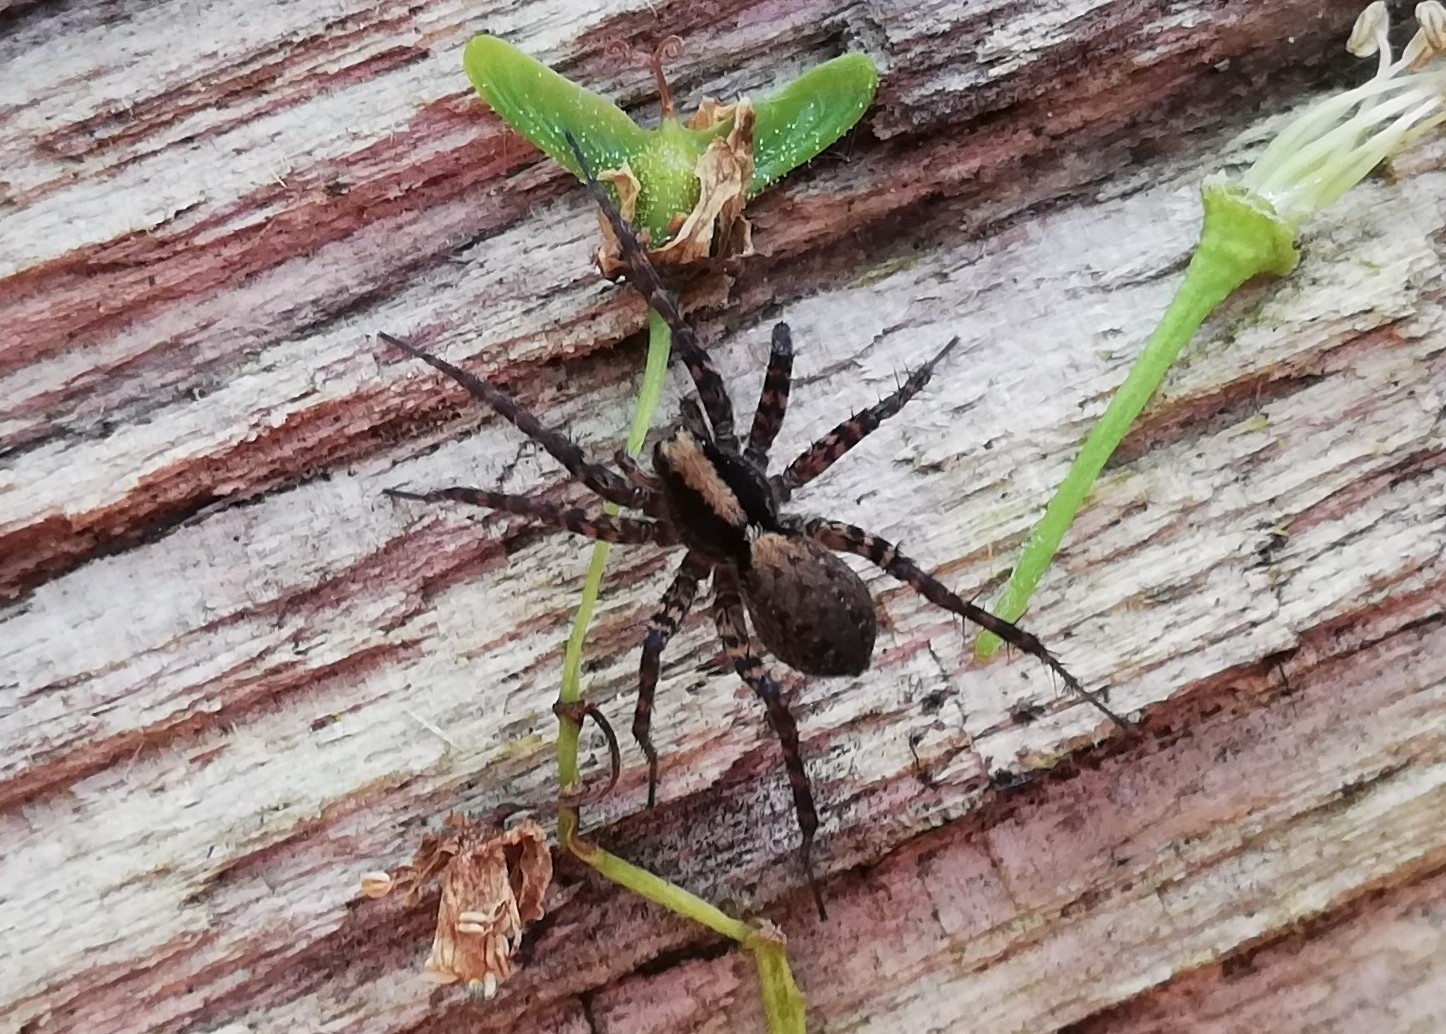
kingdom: Animalia
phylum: Arthropoda
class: Arachnida
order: Araneae
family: Lycosidae
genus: Pardosa
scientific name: Pardosa
